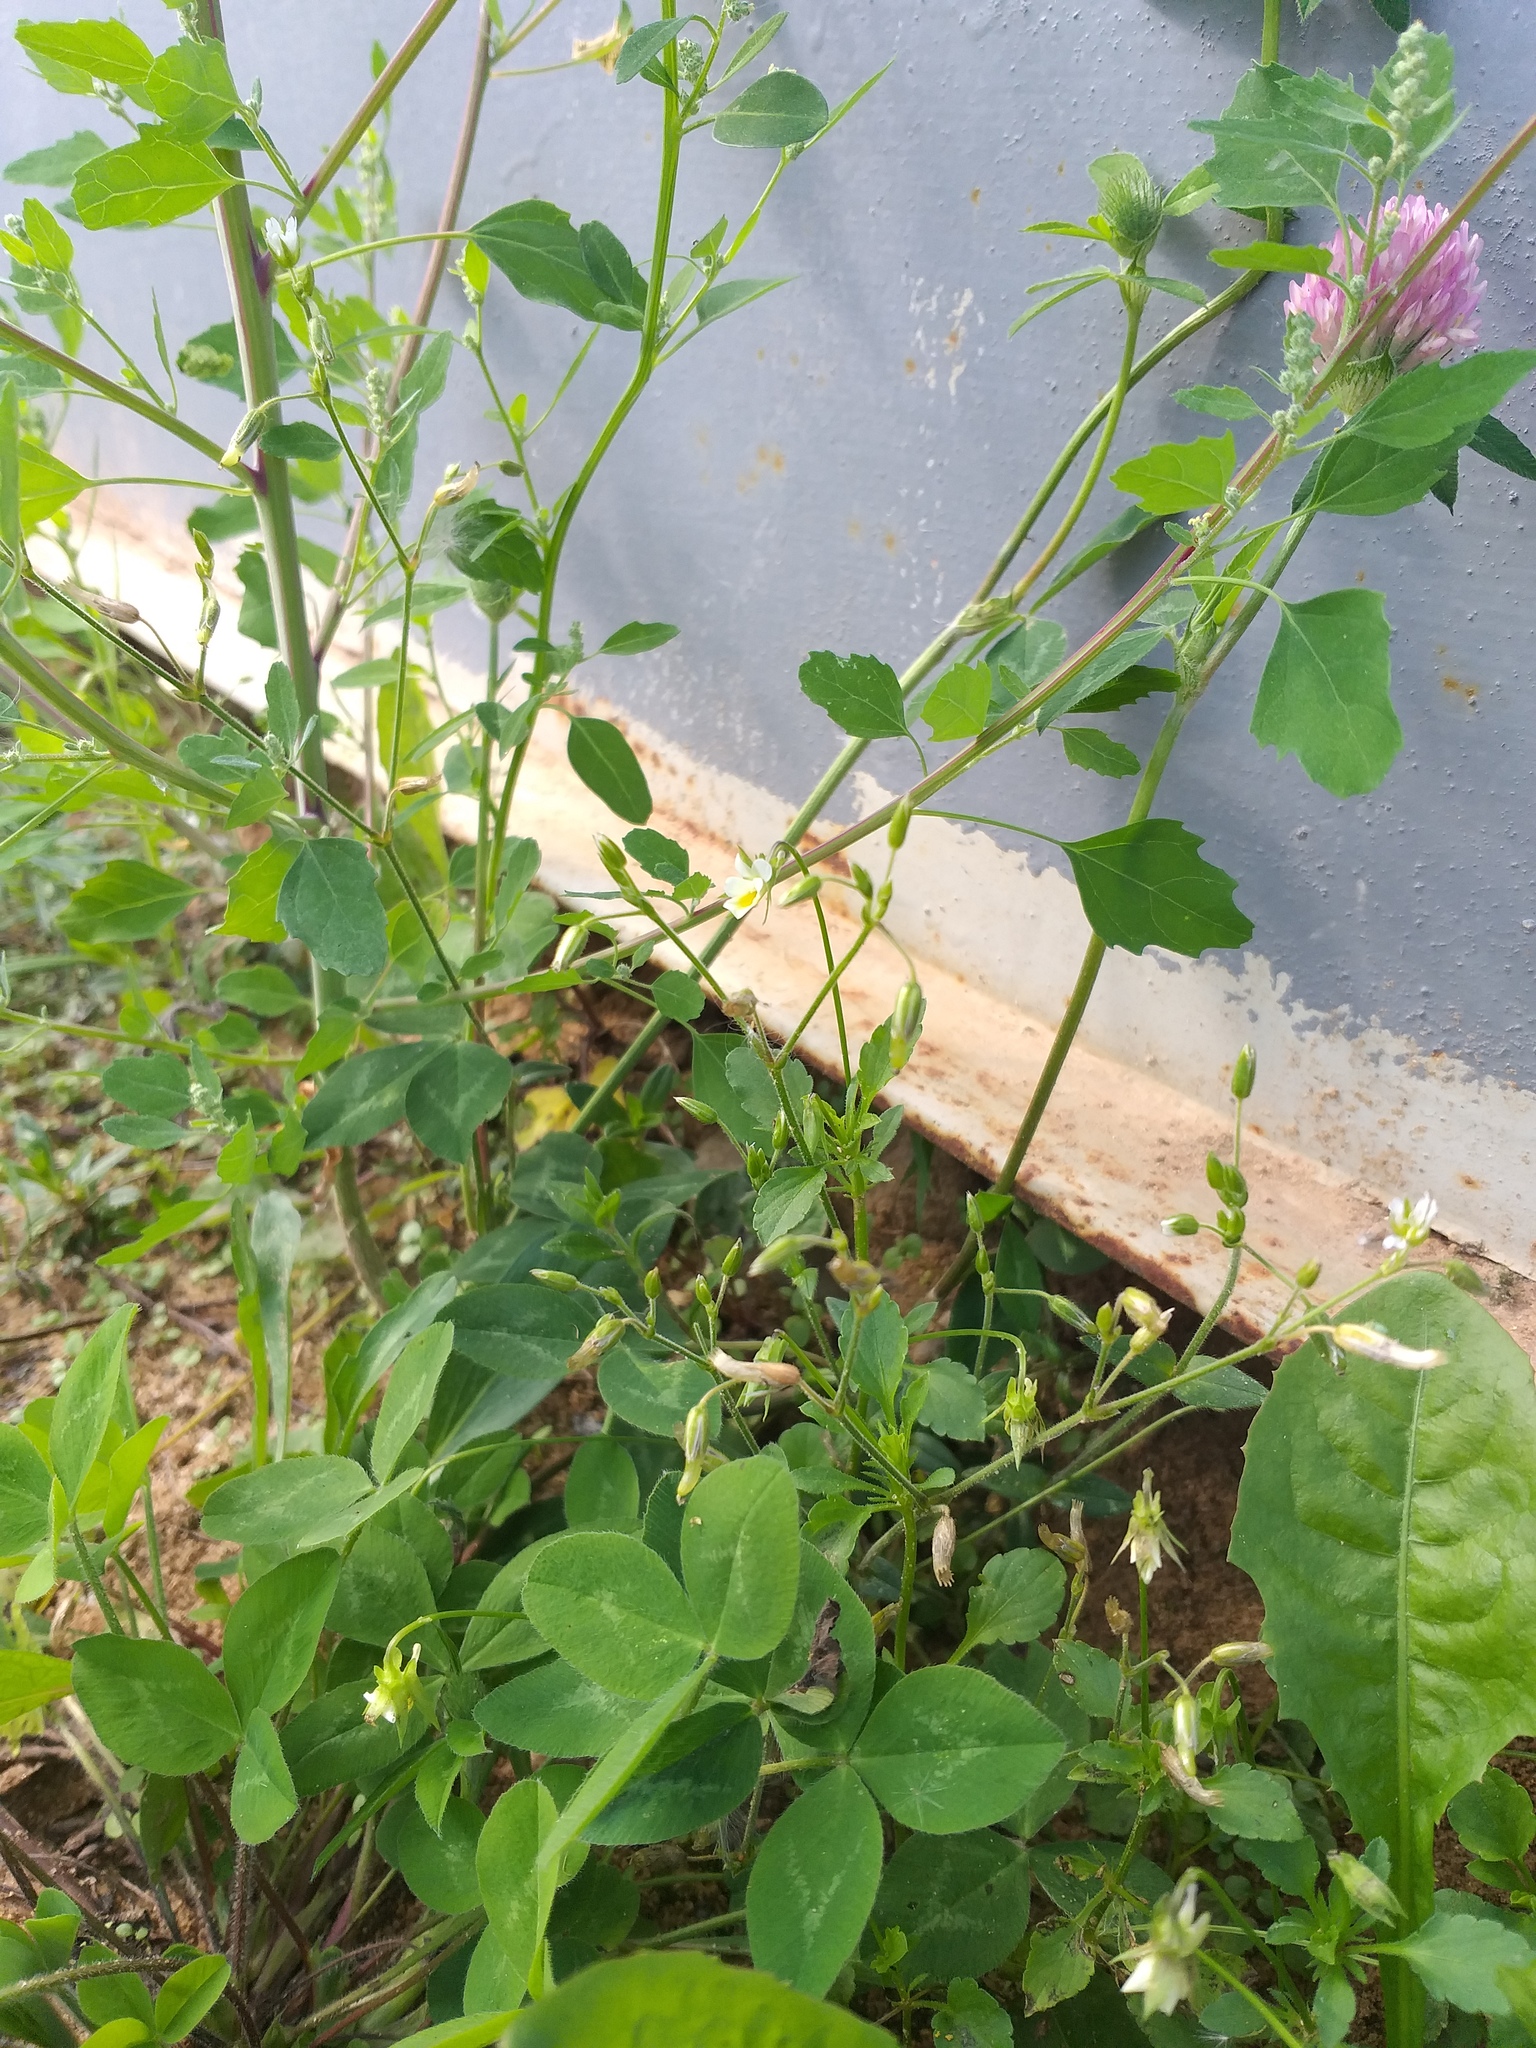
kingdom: Plantae
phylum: Tracheophyta
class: Magnoliopsida
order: Fabales
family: Fabaceae
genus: Trifolium
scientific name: Trifolium pratense
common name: Red clover
